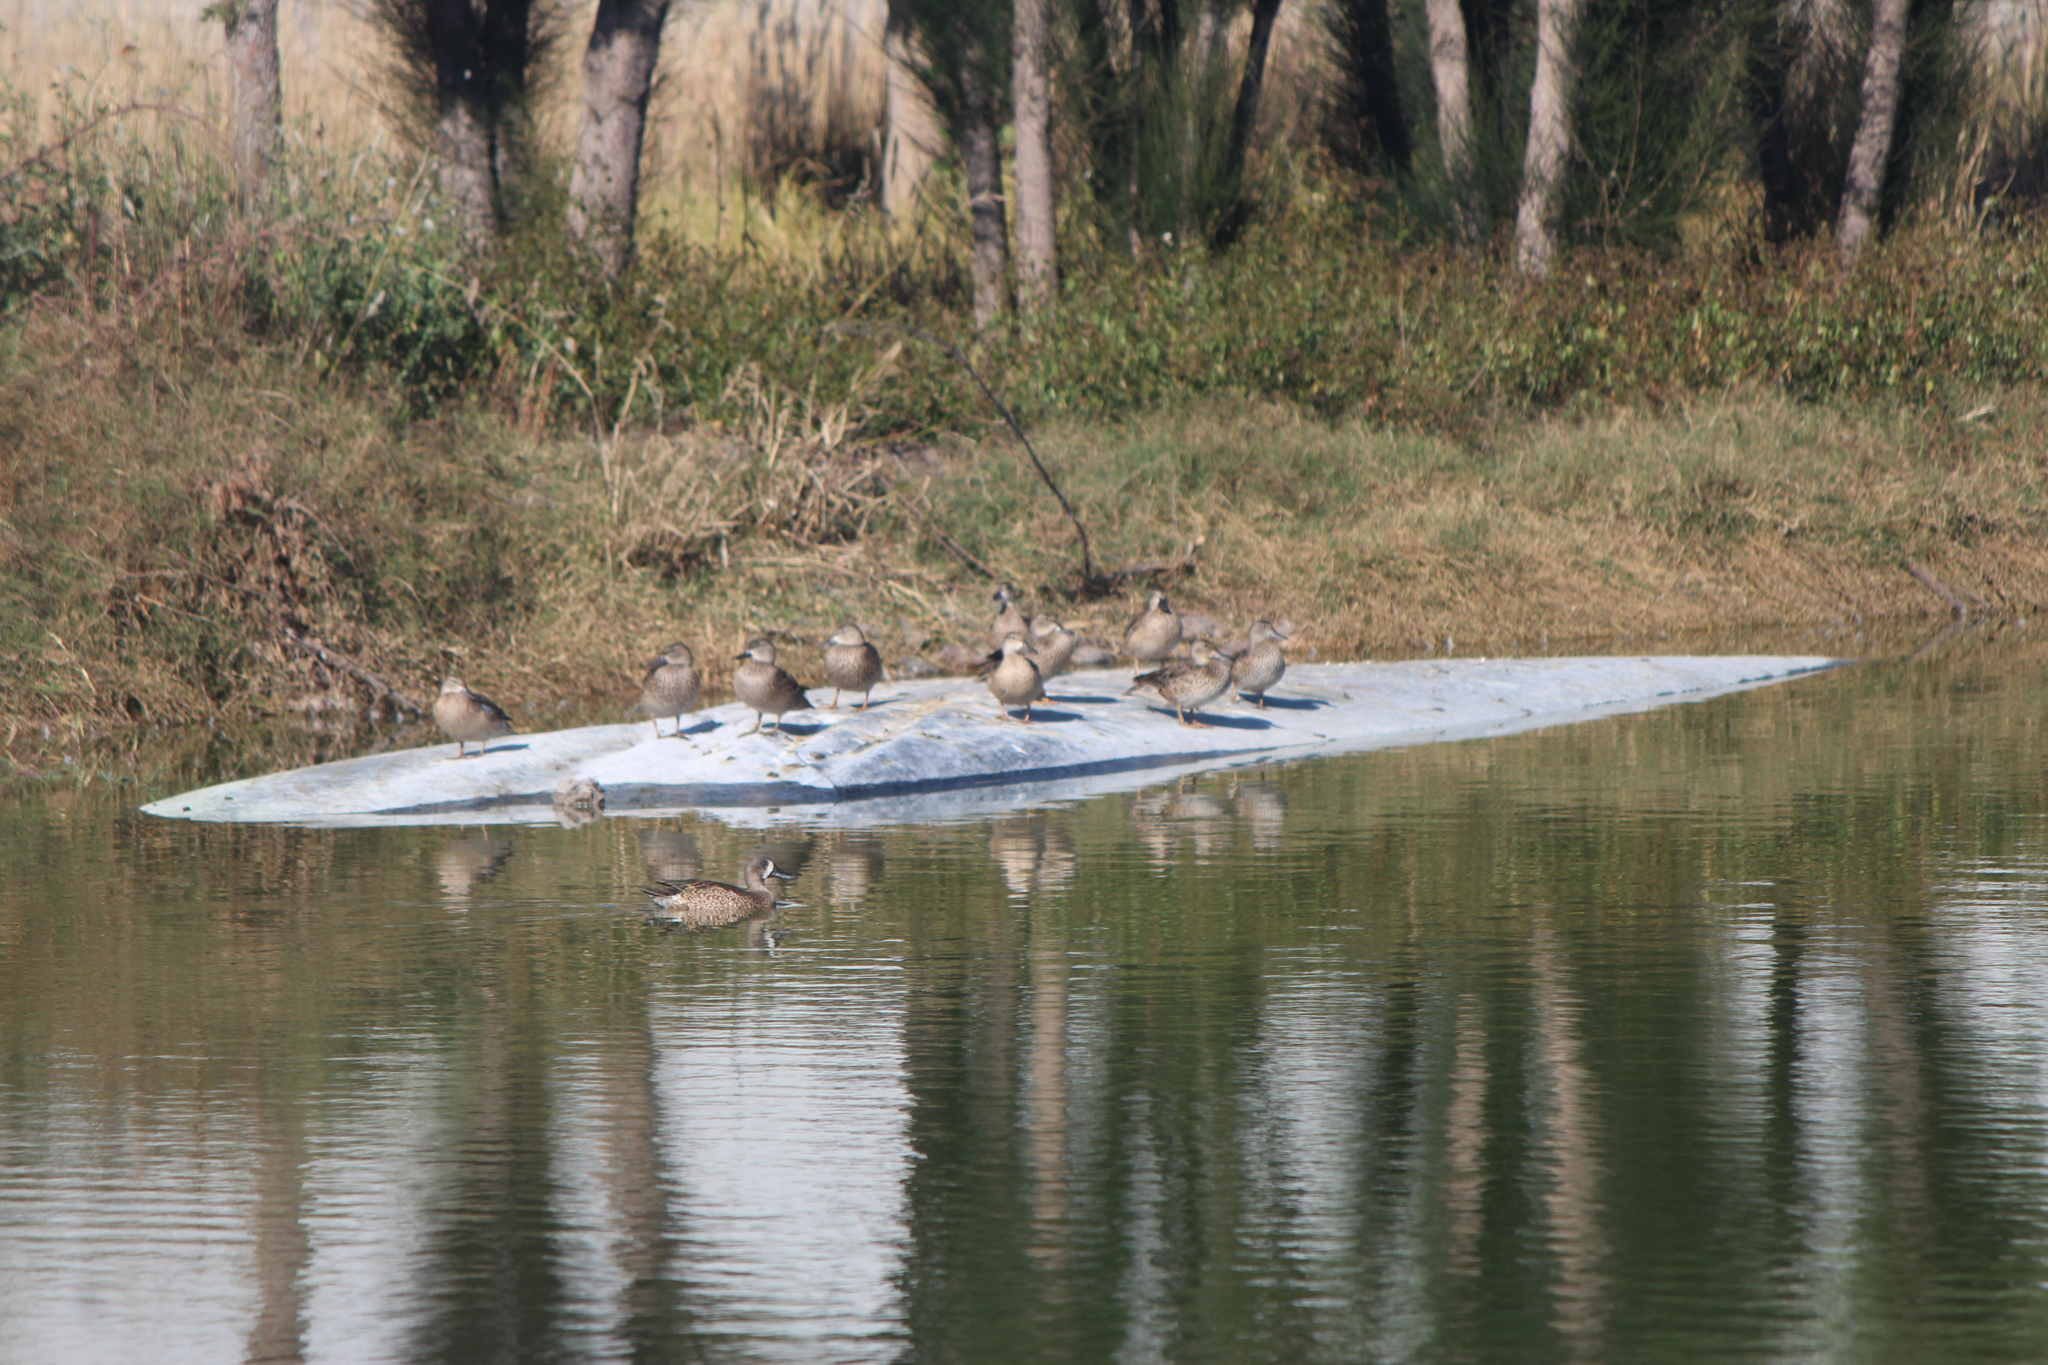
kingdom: Animalia
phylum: Chordata
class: Aves
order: Anseriformes
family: Anatidae
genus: Spatula
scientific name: Spatula discors
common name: Blue-winged teal
